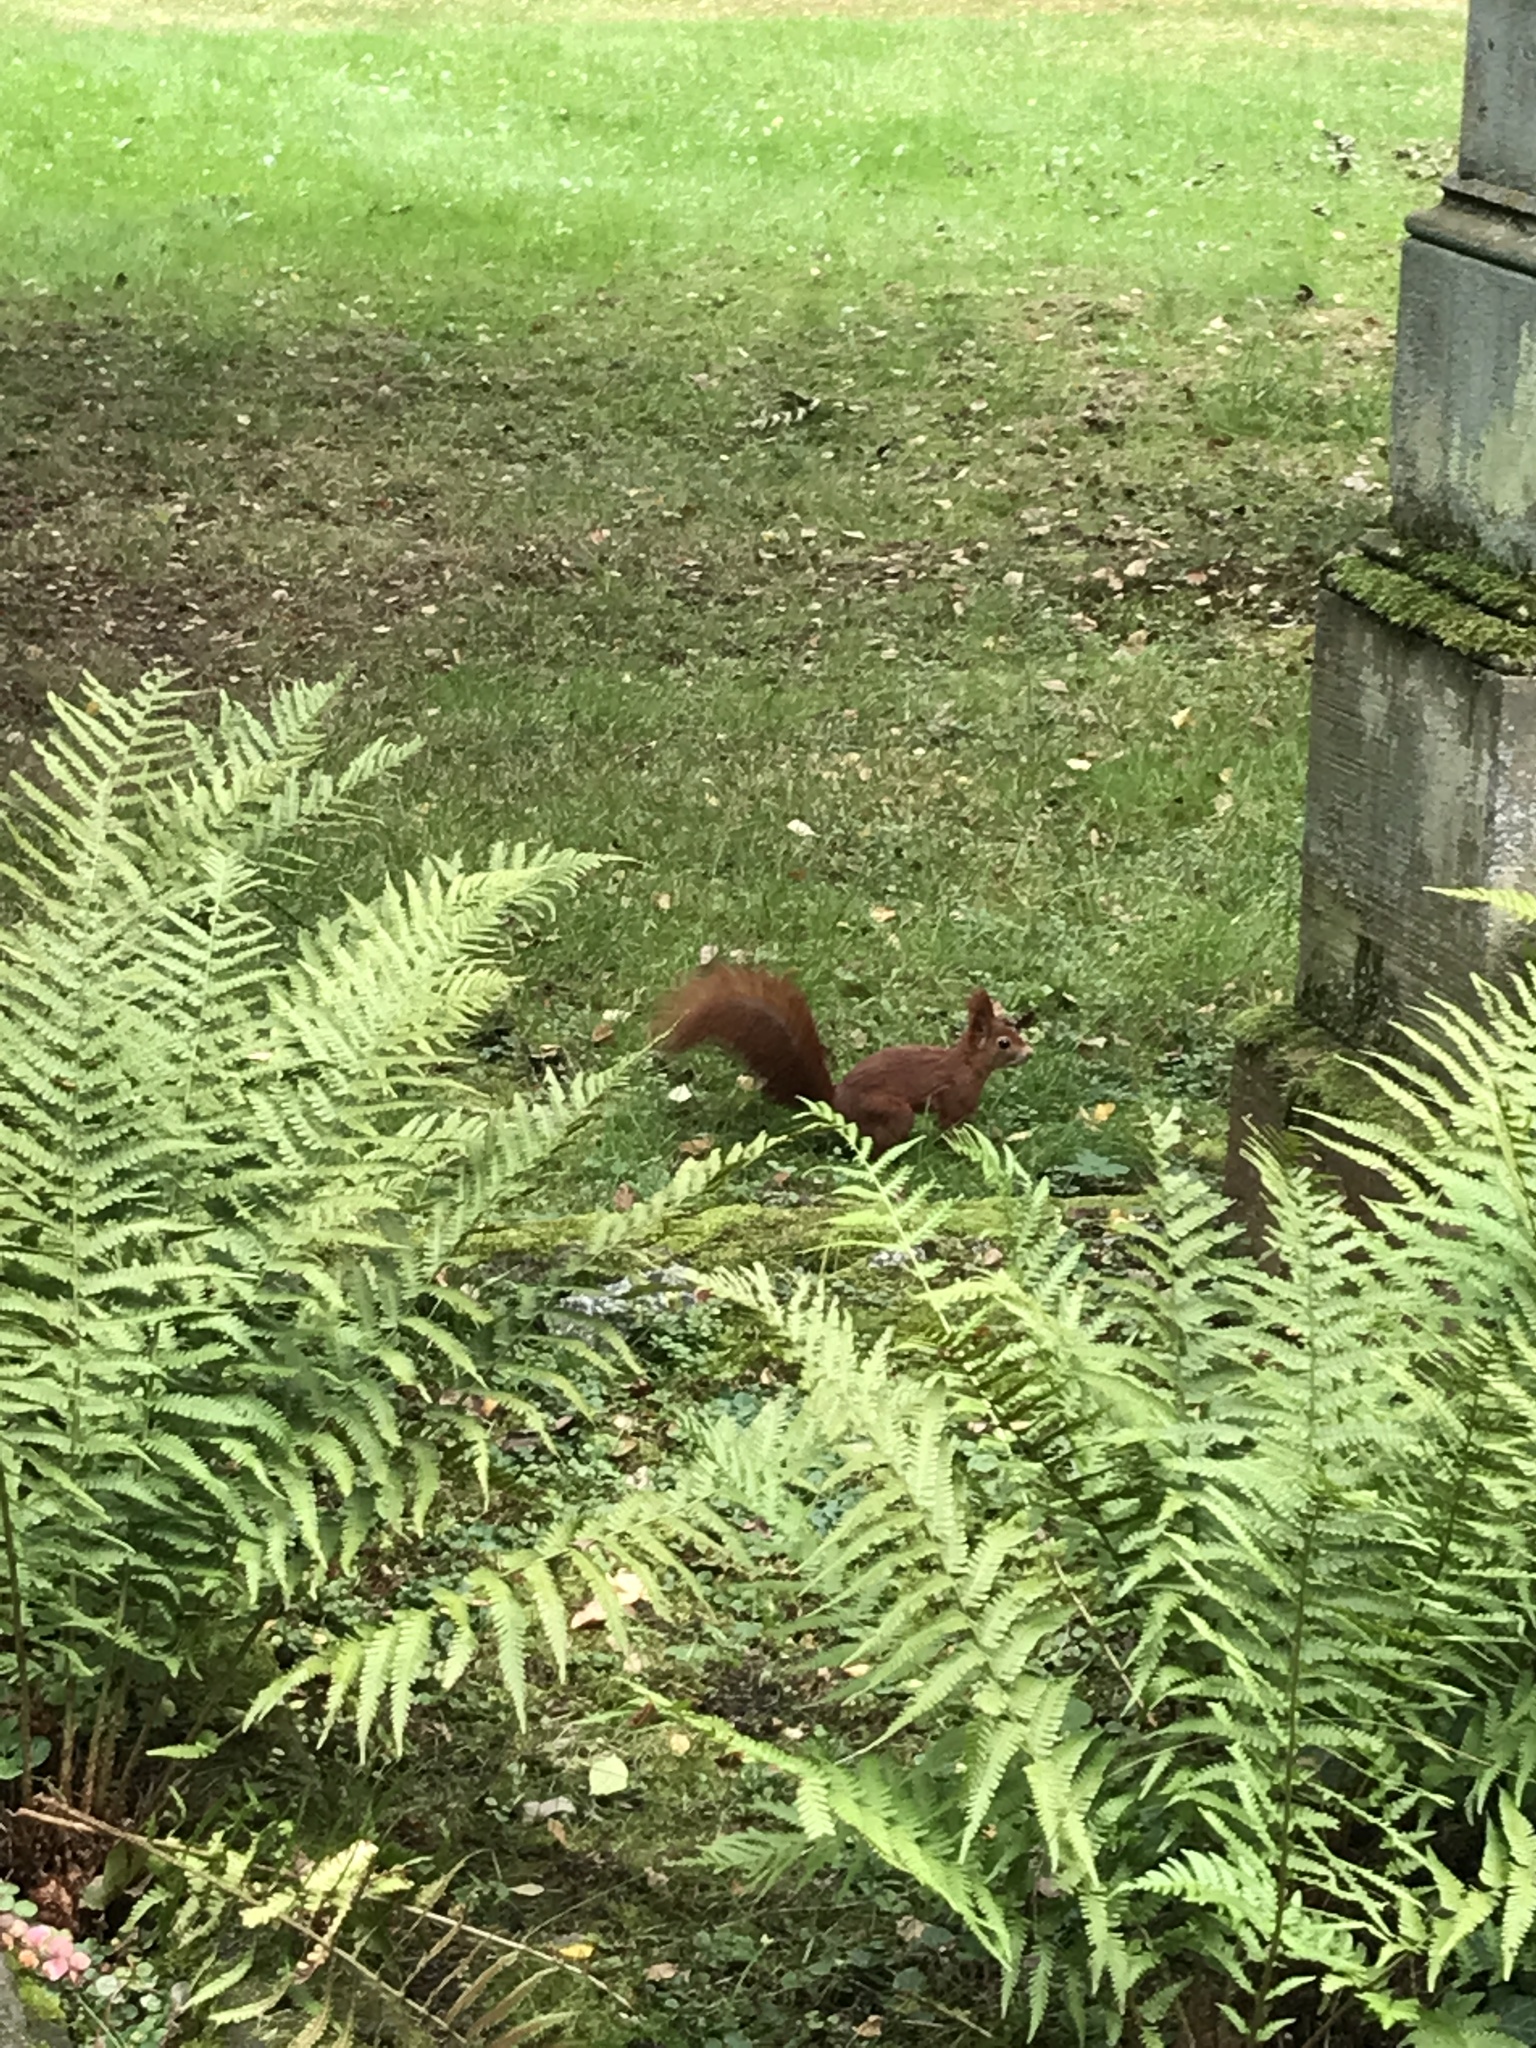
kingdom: Animalia
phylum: Chordata
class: Mammalia
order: Rodentia
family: Sciuridae
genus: Sciurus
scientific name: Sciurus vulgaris
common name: Eurasian red squirrel
